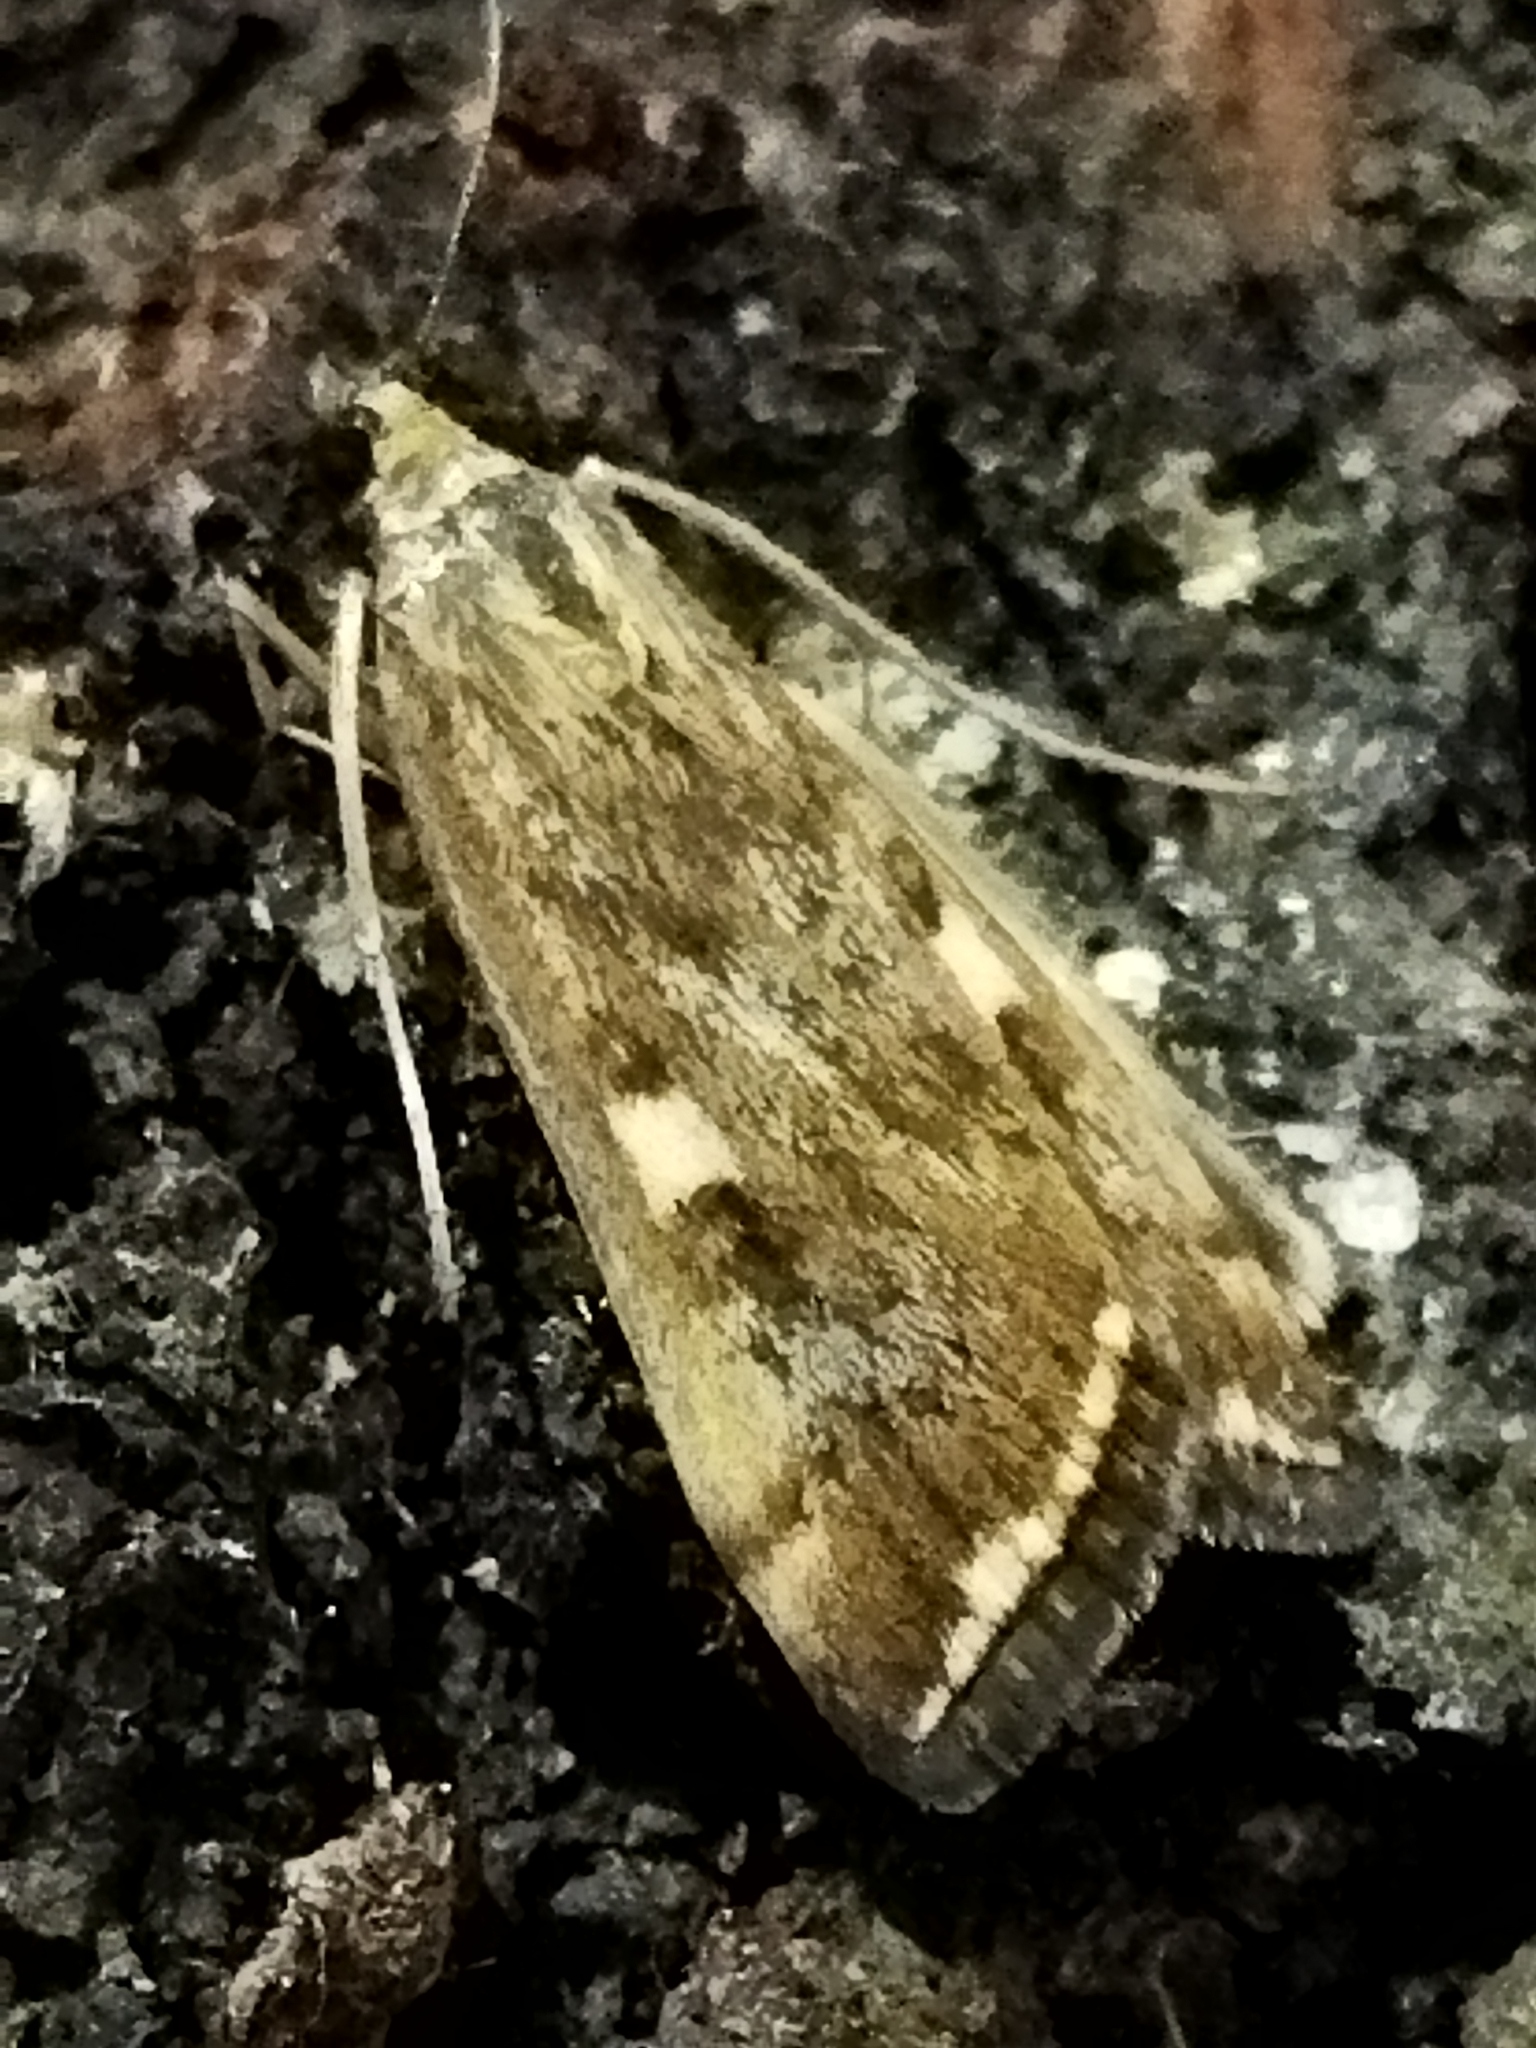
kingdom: Animalia
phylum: Arthropoda
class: Insecta
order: Lepidoptera
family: Crambidae
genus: Loxostege
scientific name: Loxostege sticticalis
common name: Crambid moth
